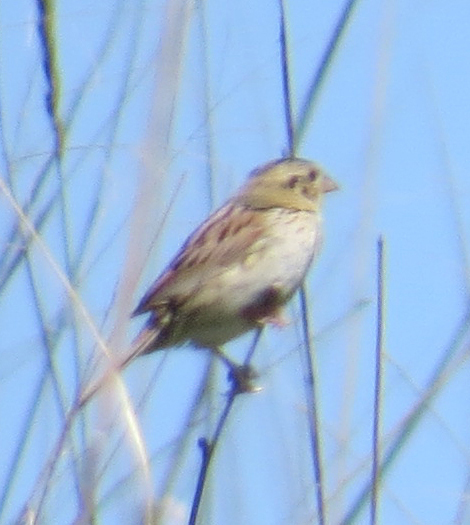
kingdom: Animalia
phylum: Chordata
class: Aves
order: Passeriformes
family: Passerellidae
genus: Centronyx
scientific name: Centronyx henslowii
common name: Henslow's sparrow
